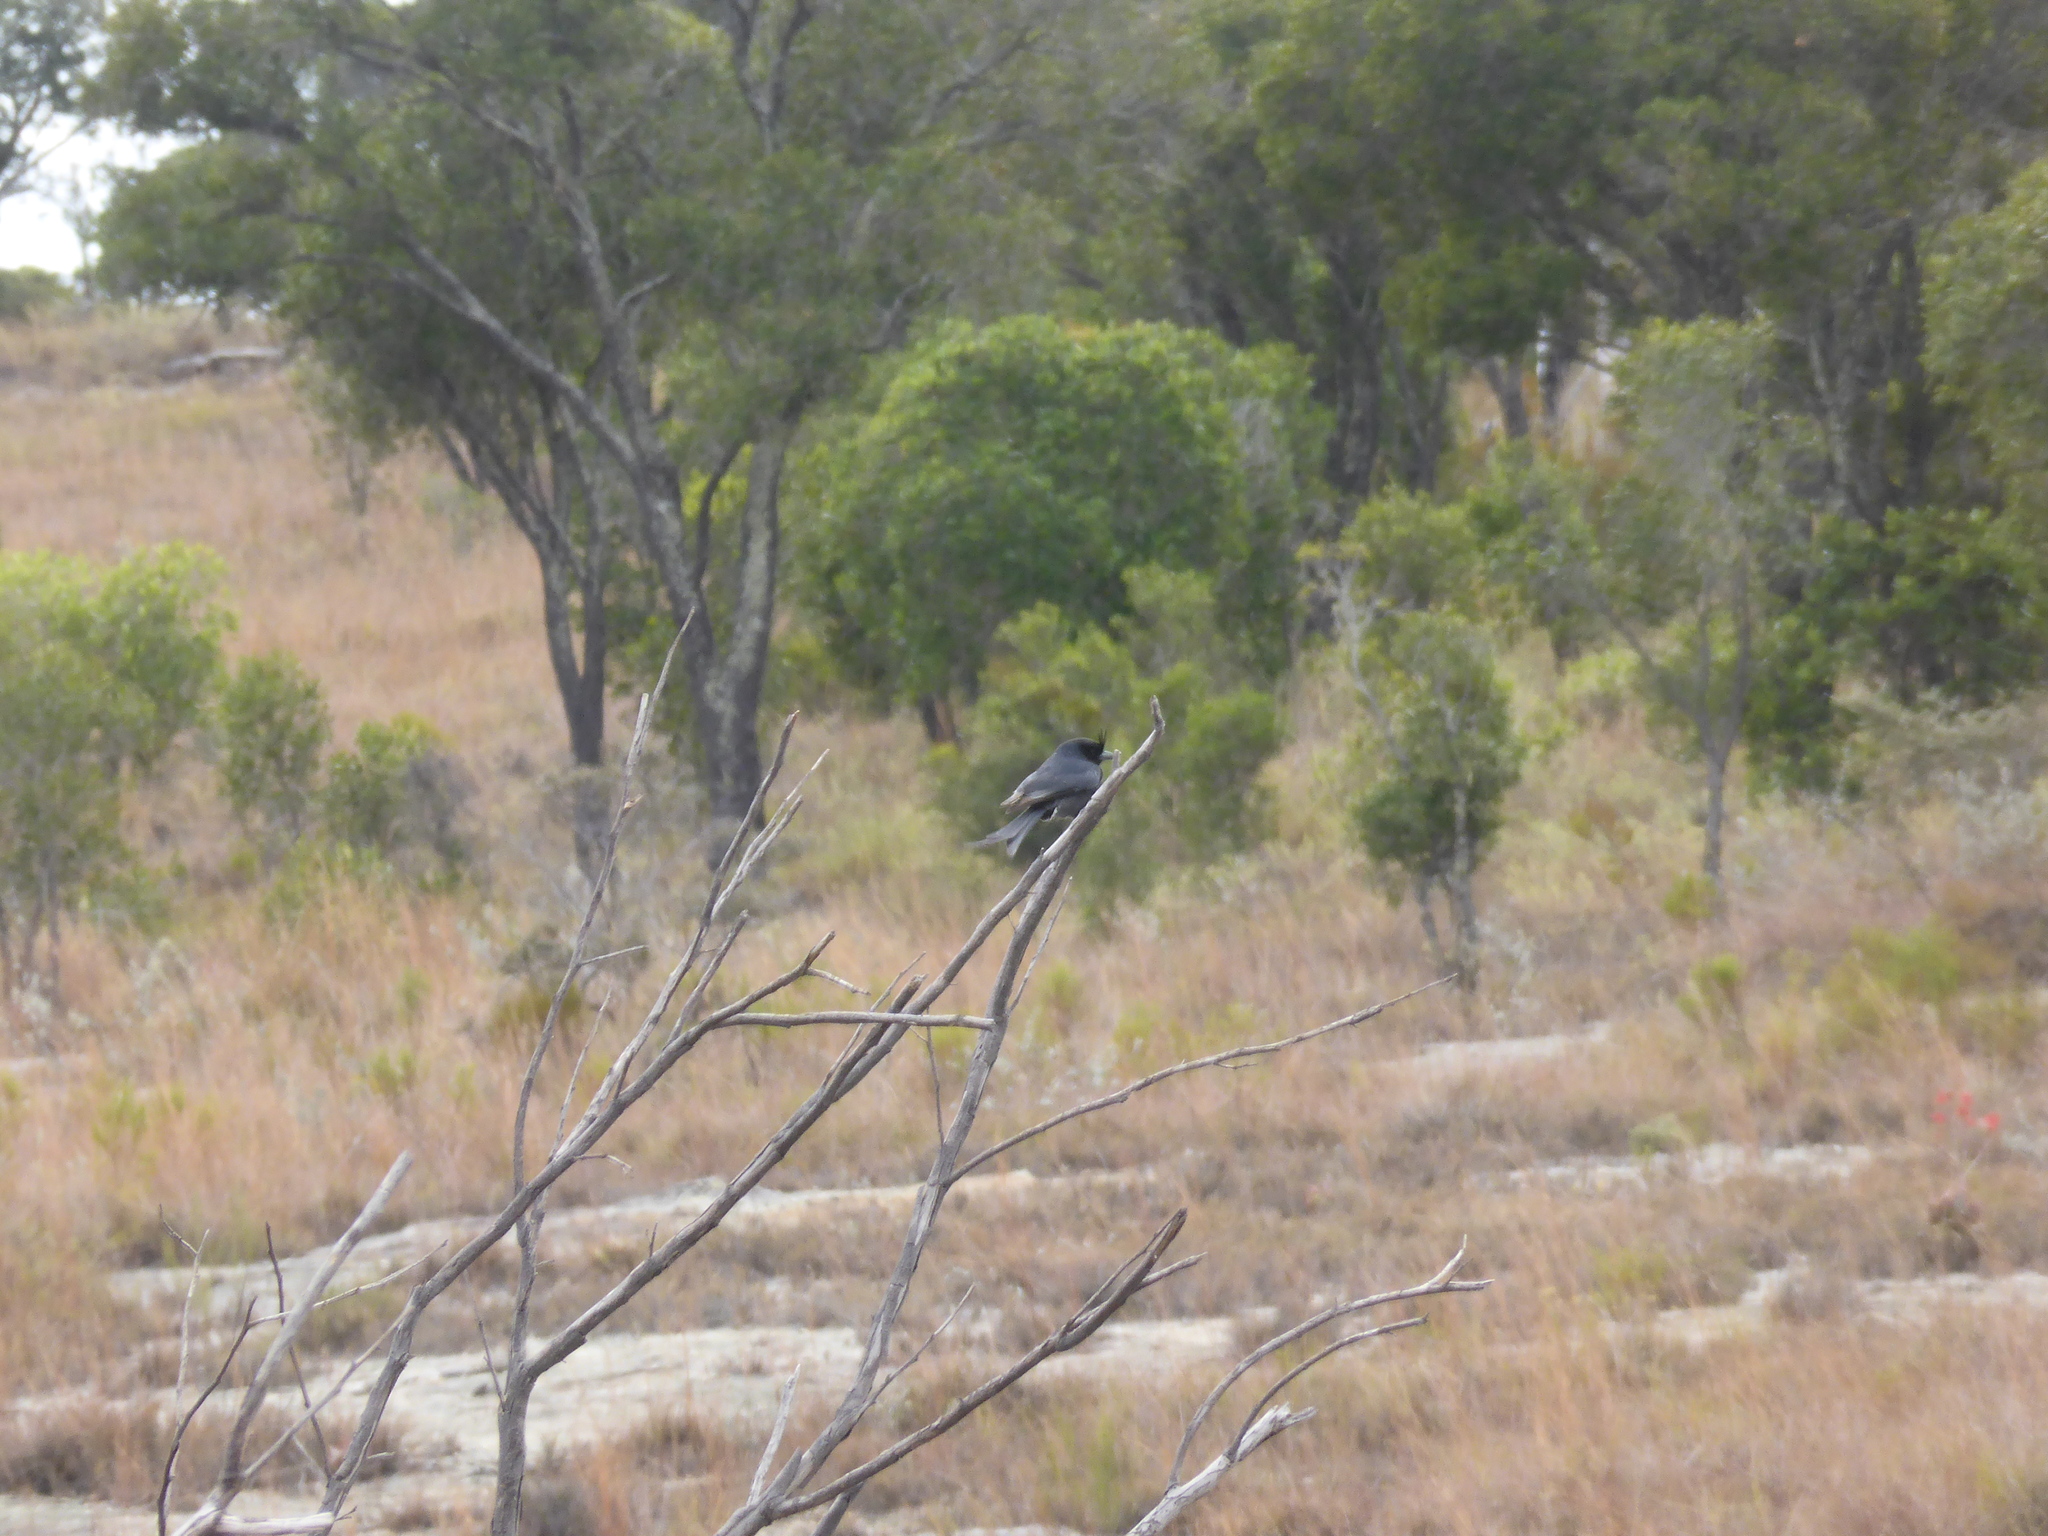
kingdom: Animalia
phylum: Chordata
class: Aves
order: Passeriformes
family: Dicruridae
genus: Dicrurus
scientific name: Dicrurus forficatus
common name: Crested drongo
